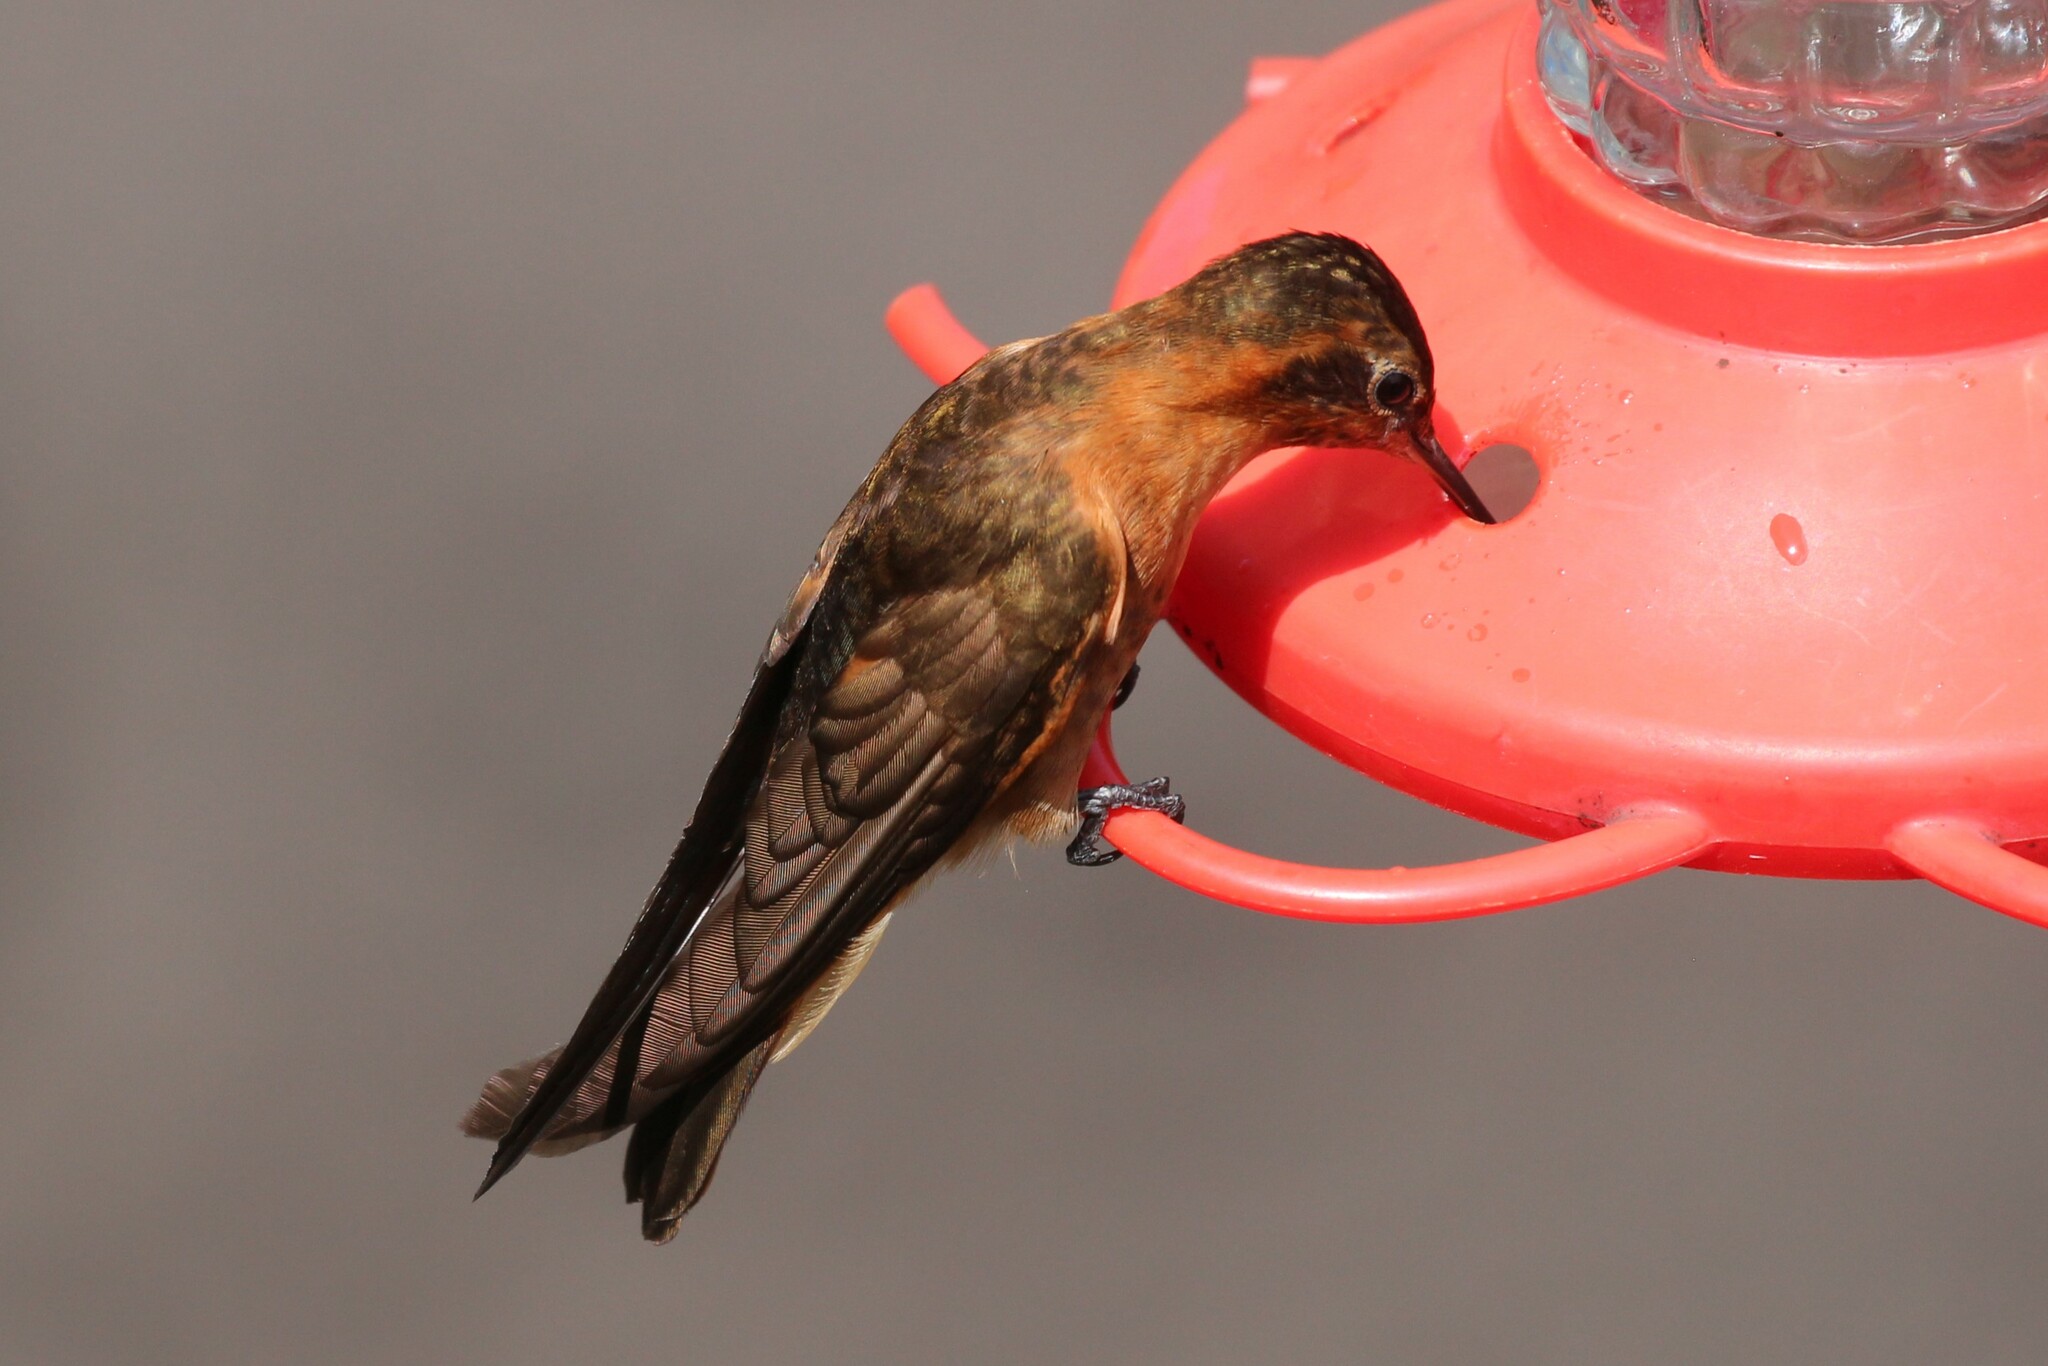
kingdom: Animalia
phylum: Chordata
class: Aves
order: Apodiformes
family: Trochilidae
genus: Aglaeactis
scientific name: Aglaeactis cupripennis
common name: Shining sunbeam
